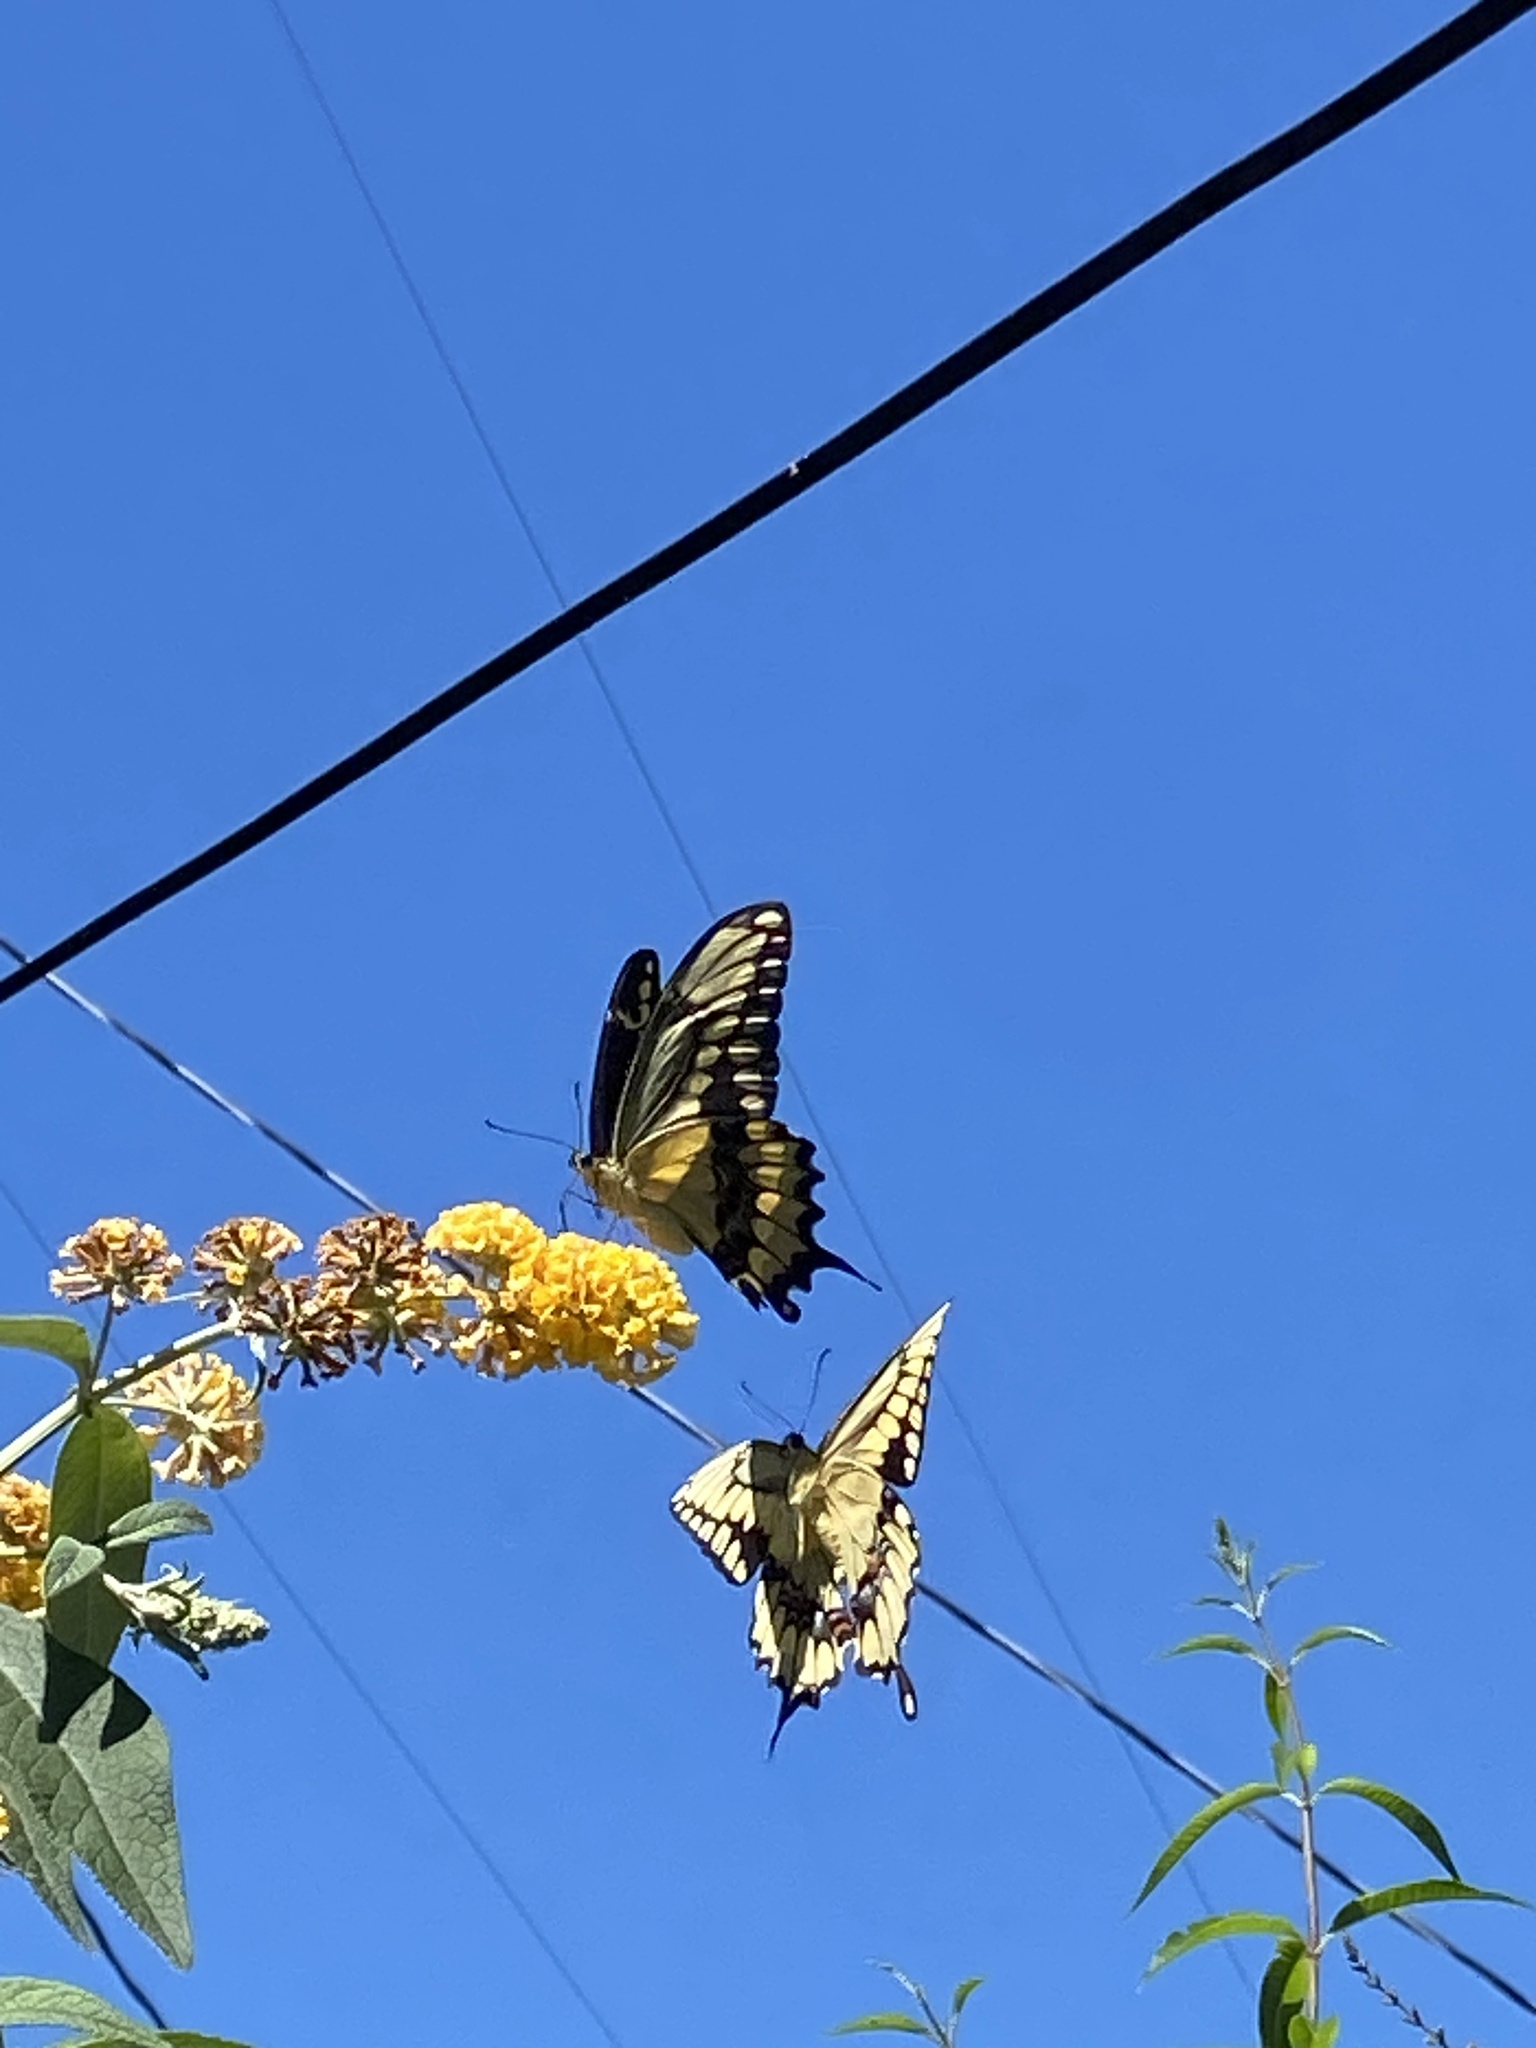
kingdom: Animalia
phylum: Arthropoda
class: Insecta
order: Lepidoptera
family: Papilionidae
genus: Papilio
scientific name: Papilio rumiko
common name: Western giant swallowtail
